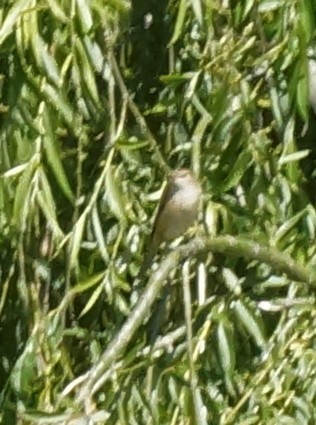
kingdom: Animalia
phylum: Chordata
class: Aves
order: Passeriformes
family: Acrocephalidae
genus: Acrocephalus
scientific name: Acrocephalus australis
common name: Australian reed warbler
